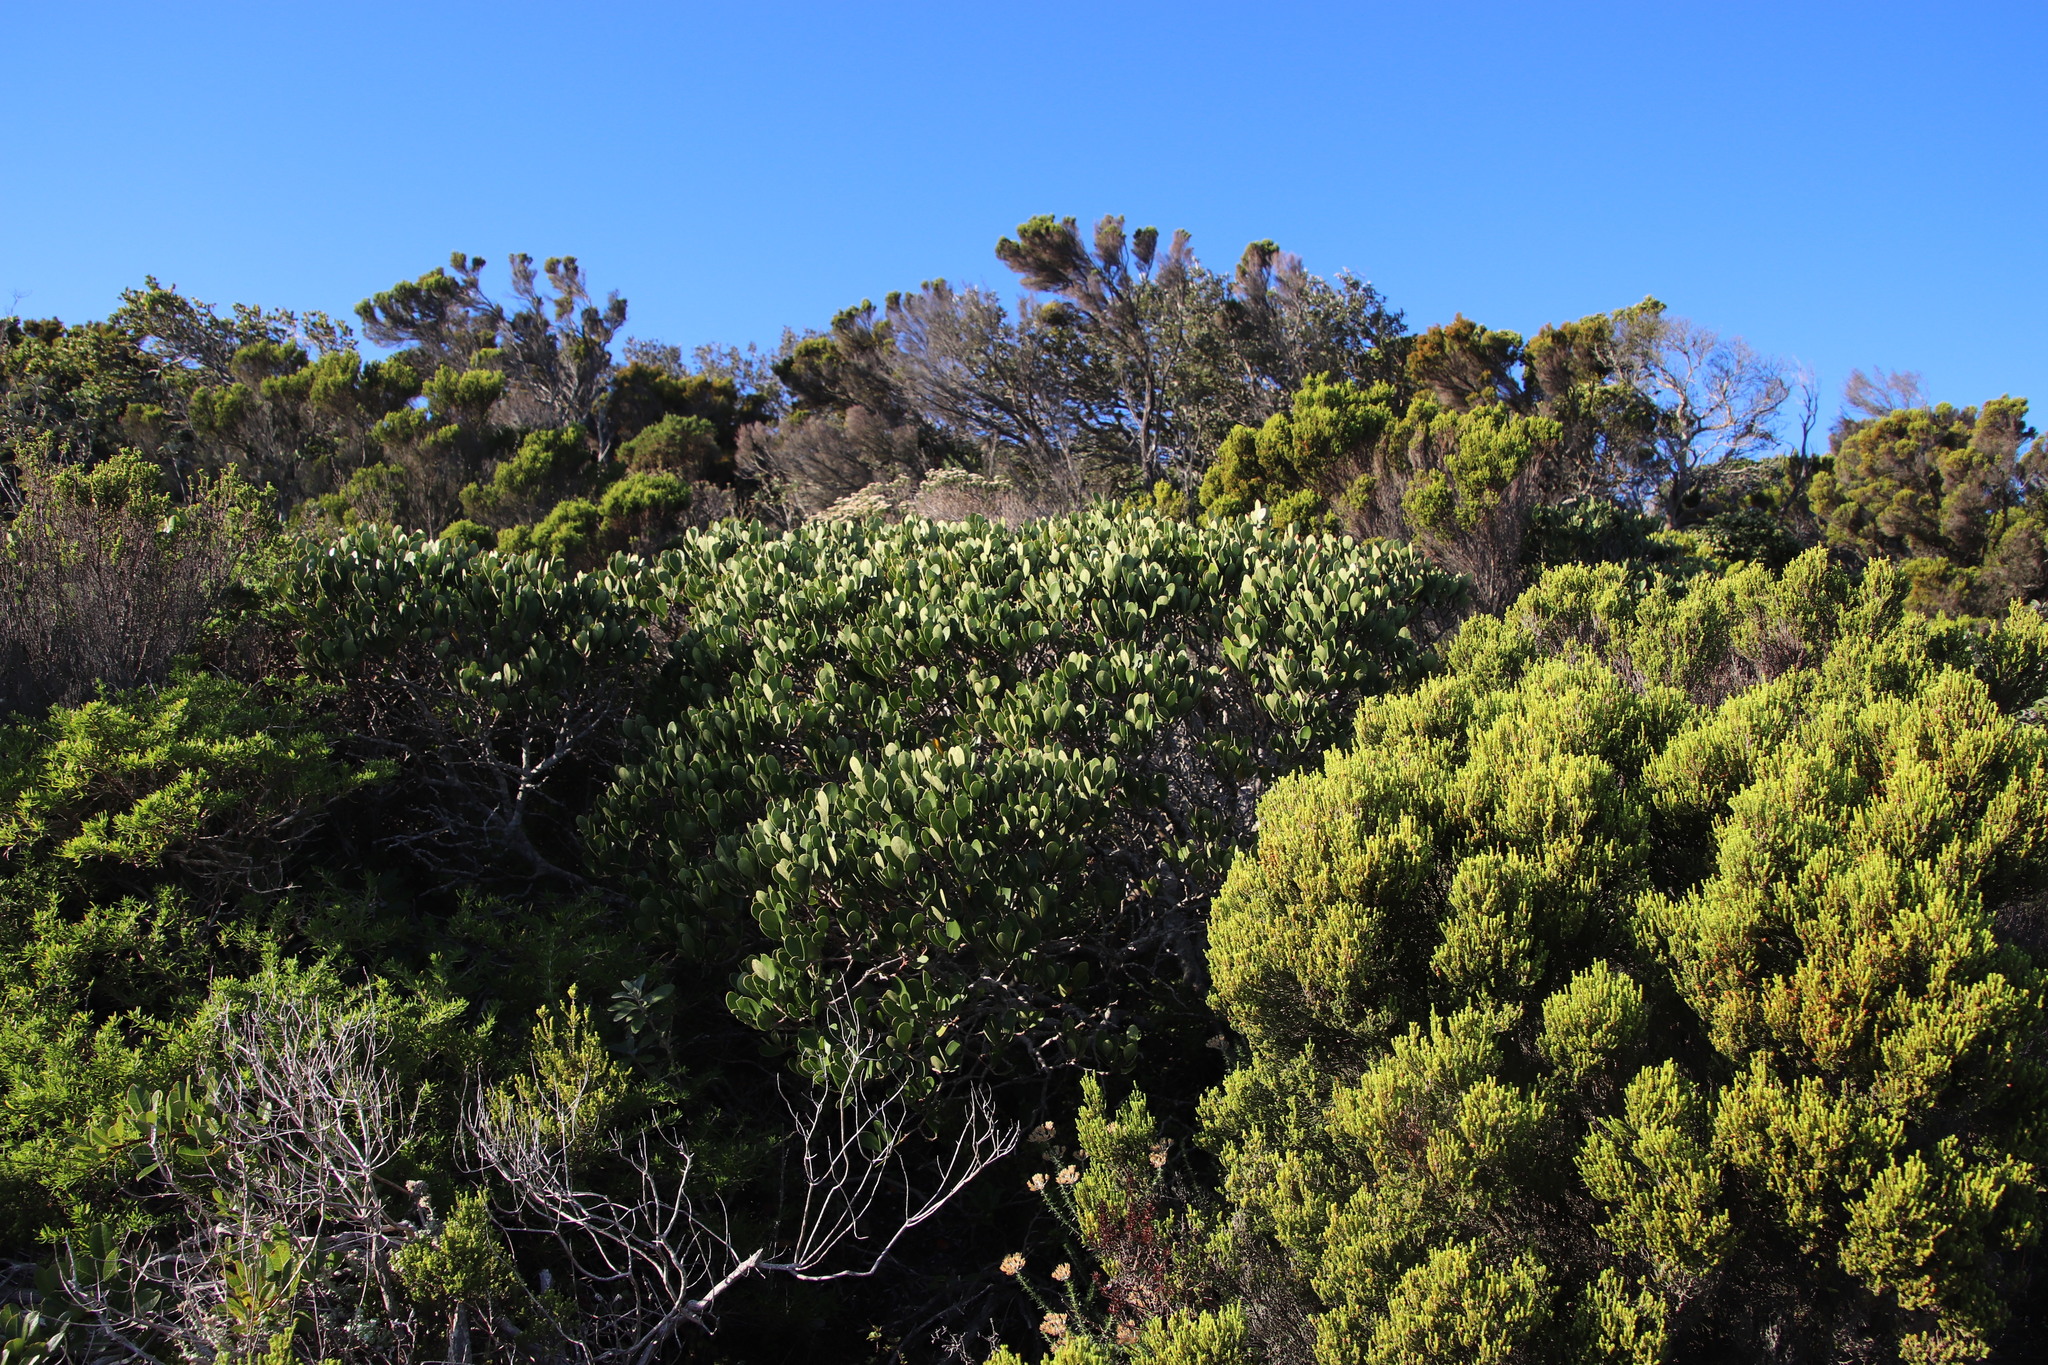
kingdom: Plantae
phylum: Tracheophyta
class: Magnoliopsida
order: Celastrales
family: Celastraceae
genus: Pterocelastrus
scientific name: Pterocelastrus tricuspidatus
